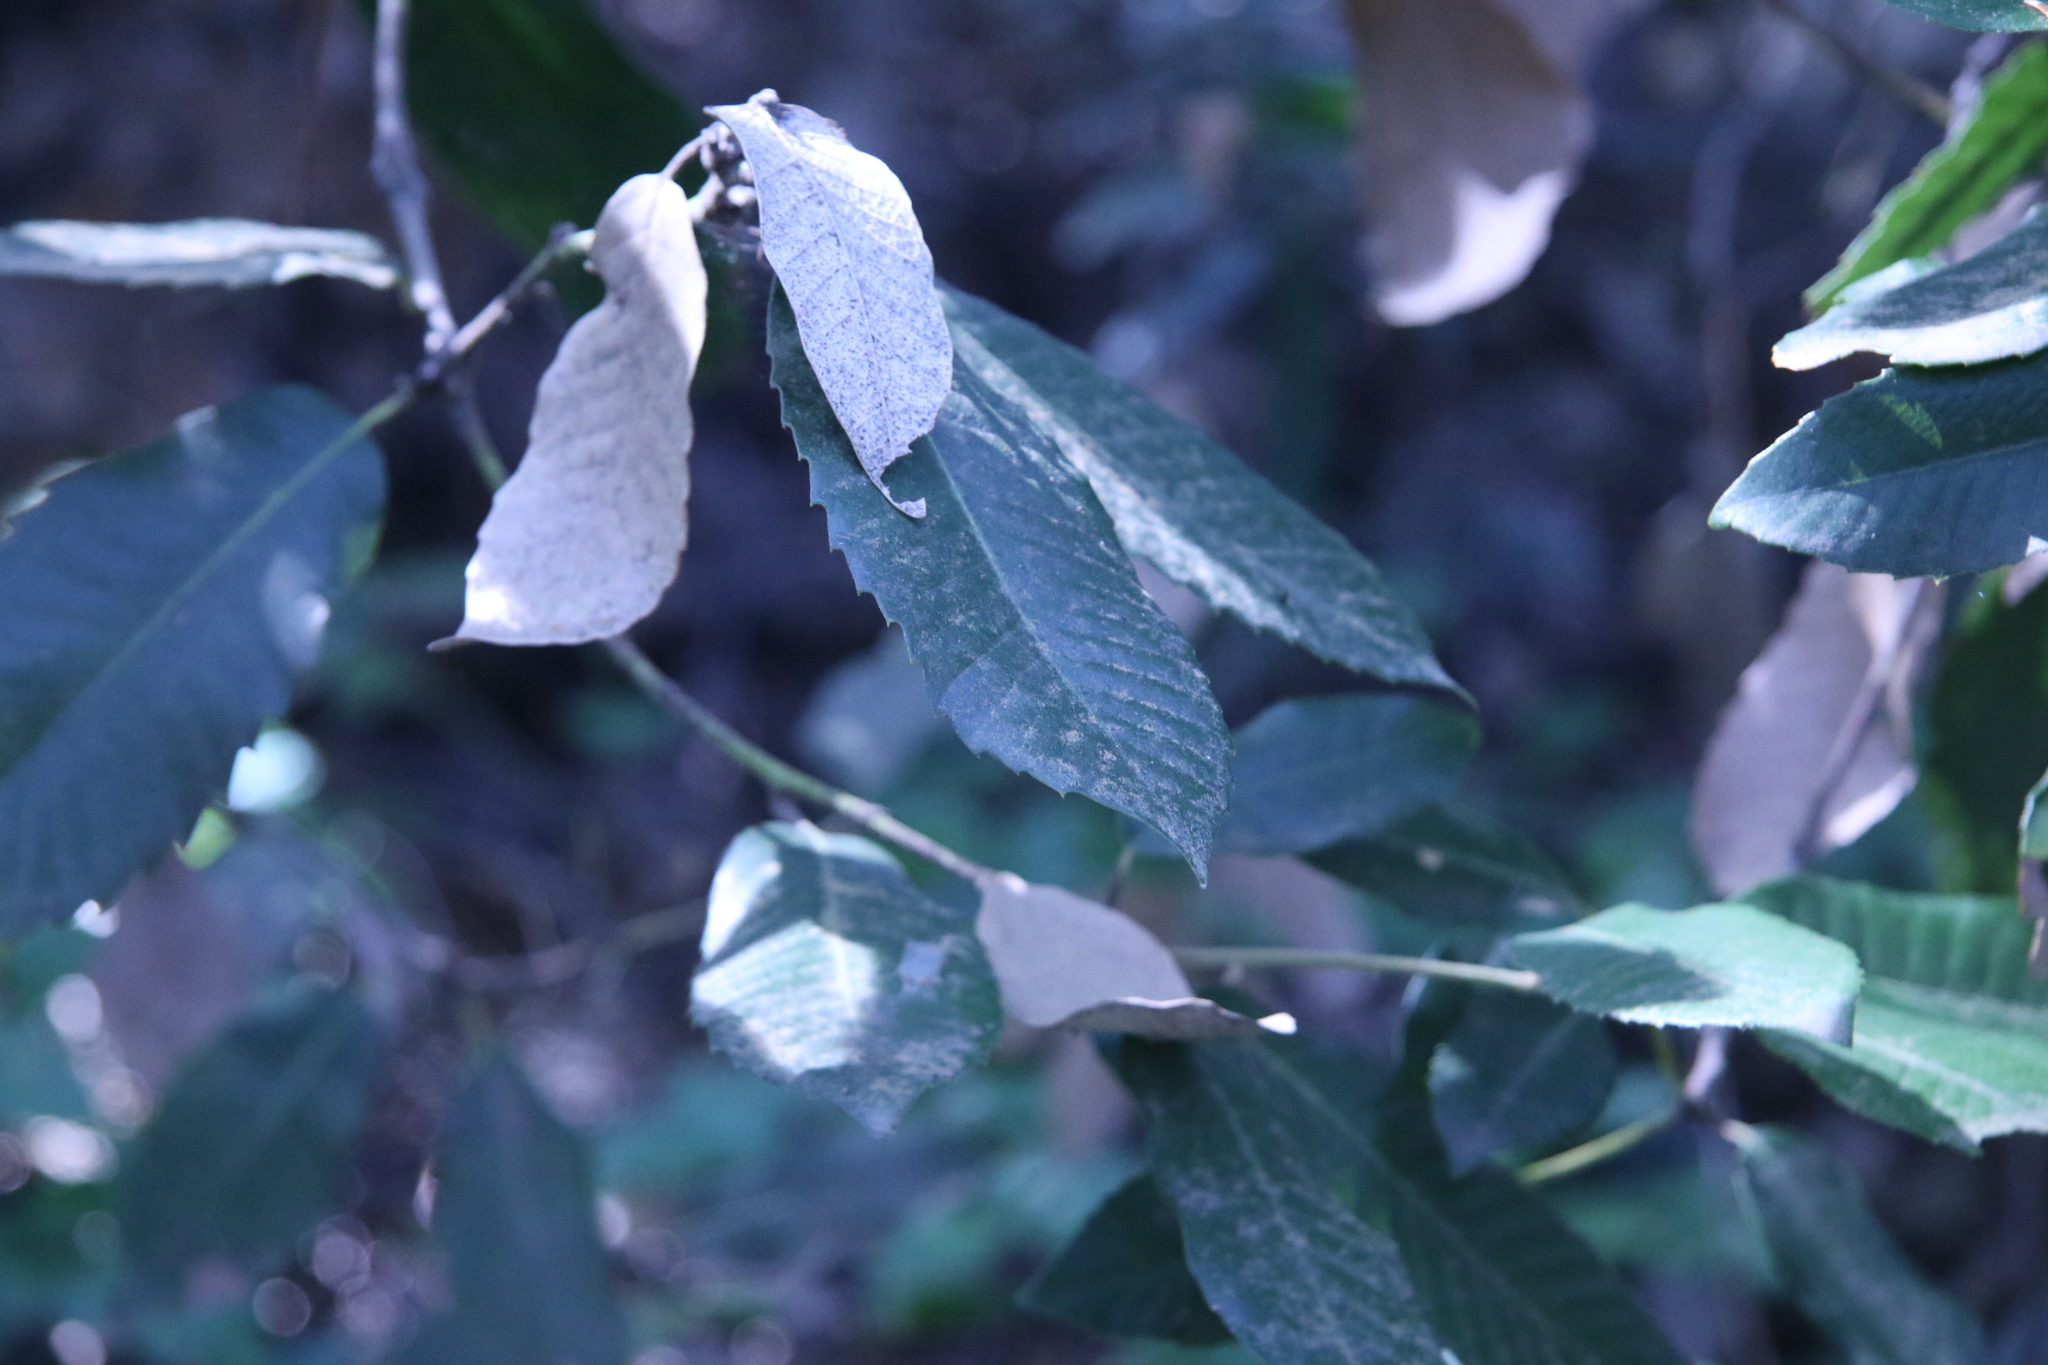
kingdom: Plantae
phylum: Tracheophyta
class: Magnoliopsida
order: Fagales
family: Fagaceae
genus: Notholithocarpus
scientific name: Notholithocarpus densiflorus
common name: Tan bark oak
